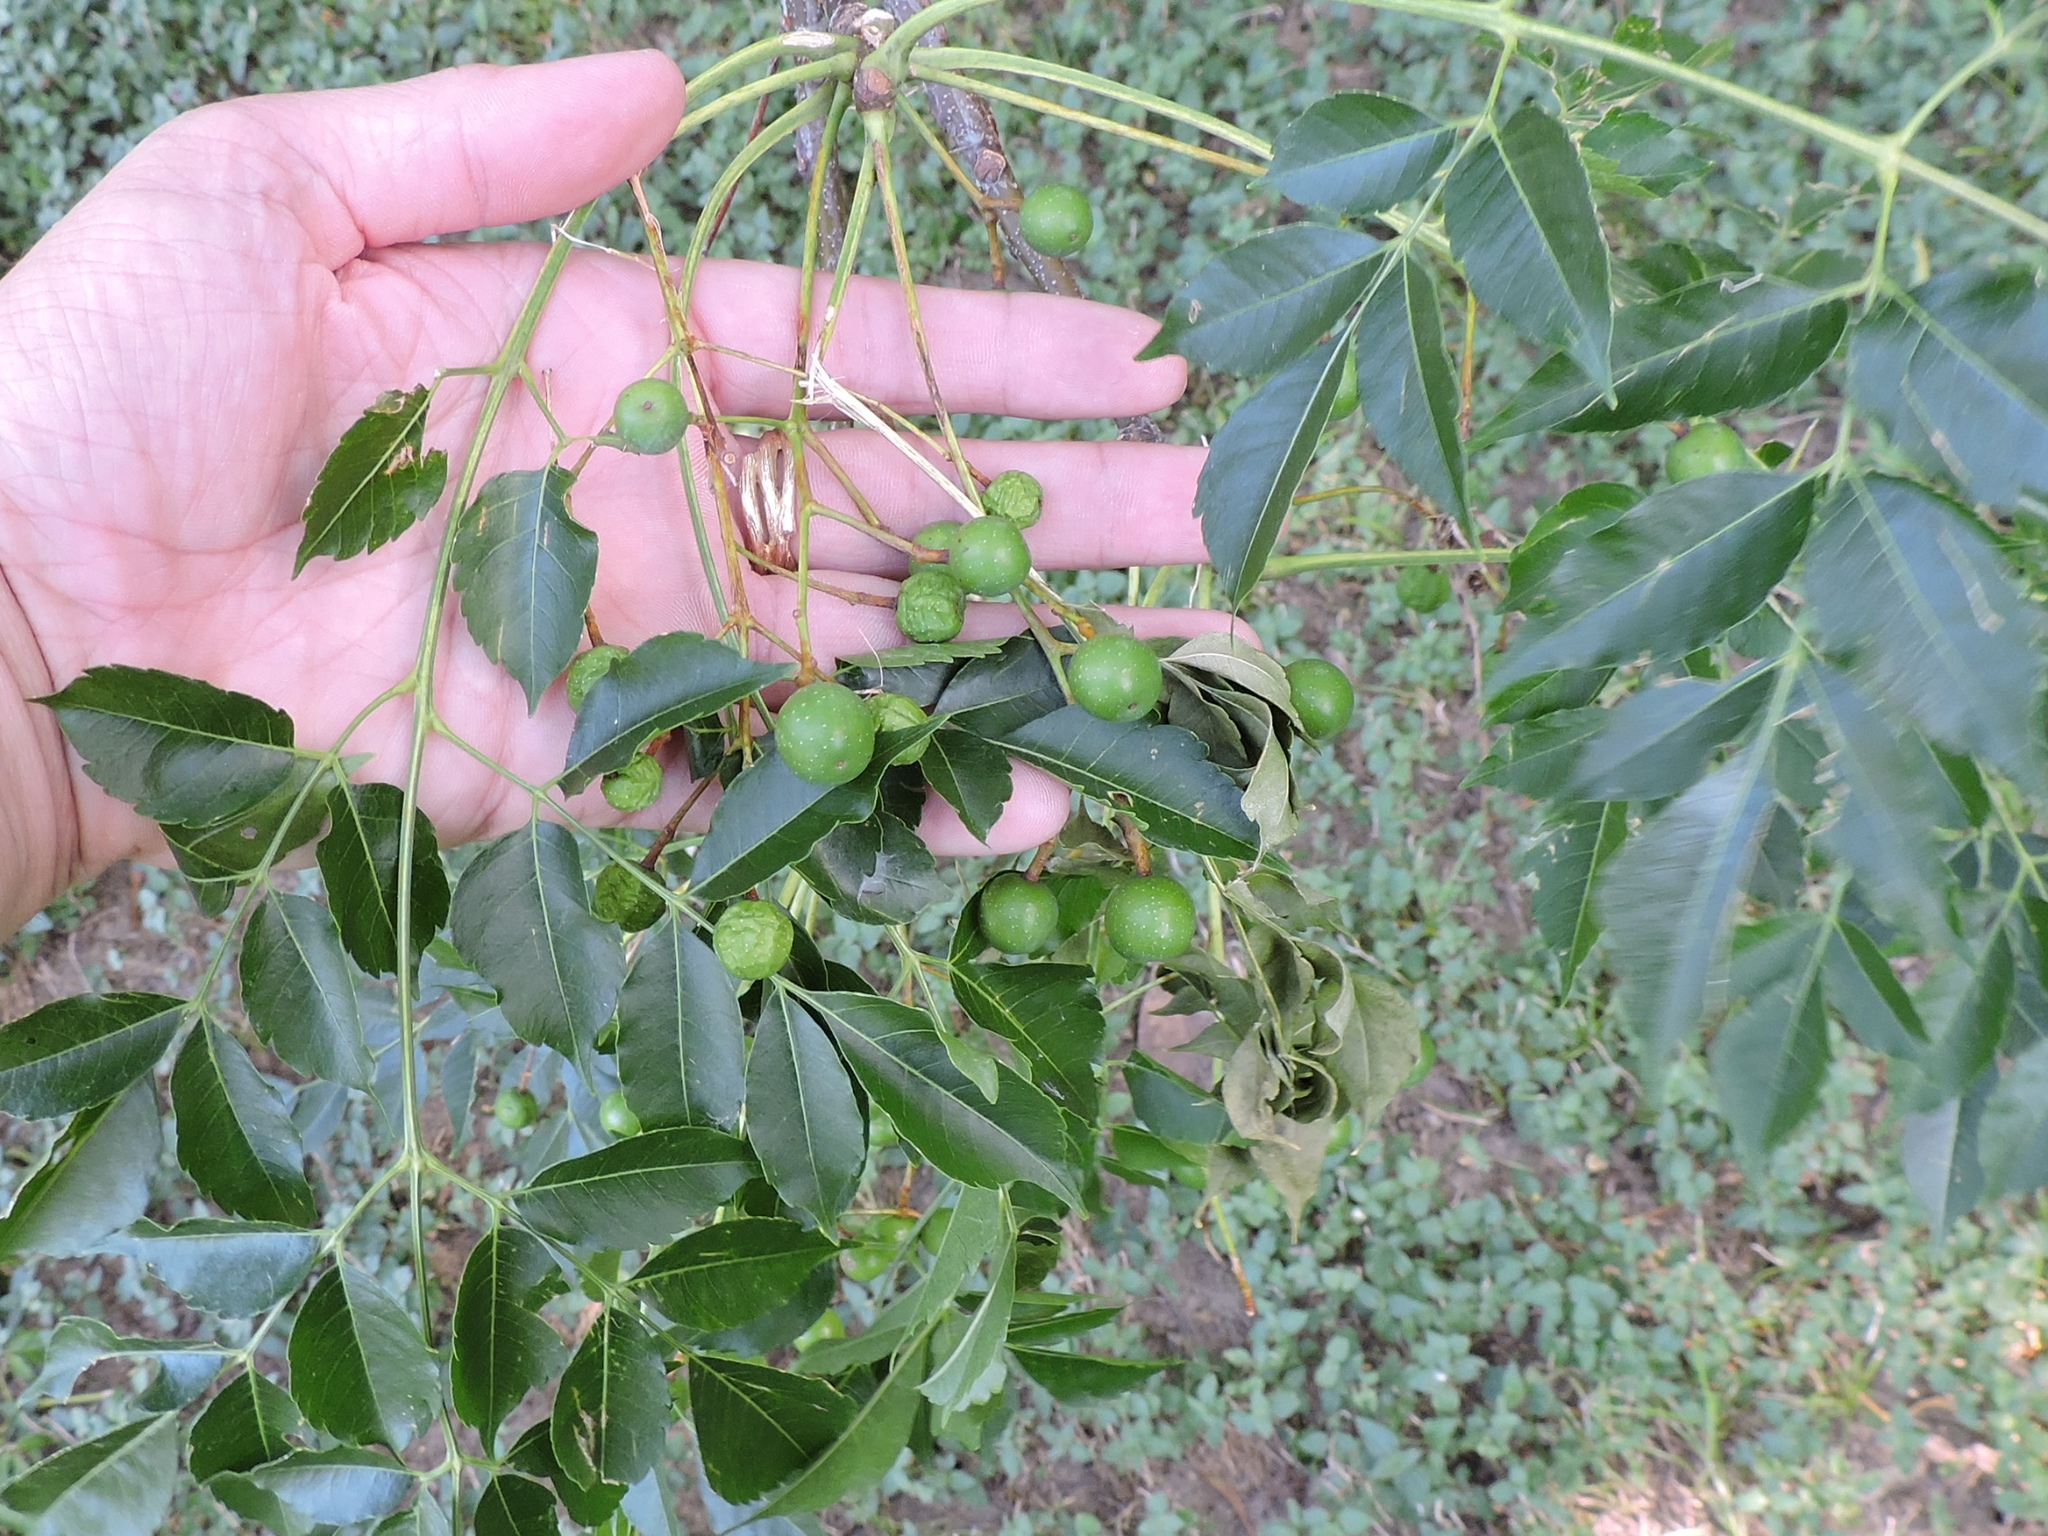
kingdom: Plantae
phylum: Tracheophyta
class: Magnoliopsida
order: Sapindales
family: Meliaceae
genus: Melia
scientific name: Melia azedarach
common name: Chinaberrytree
